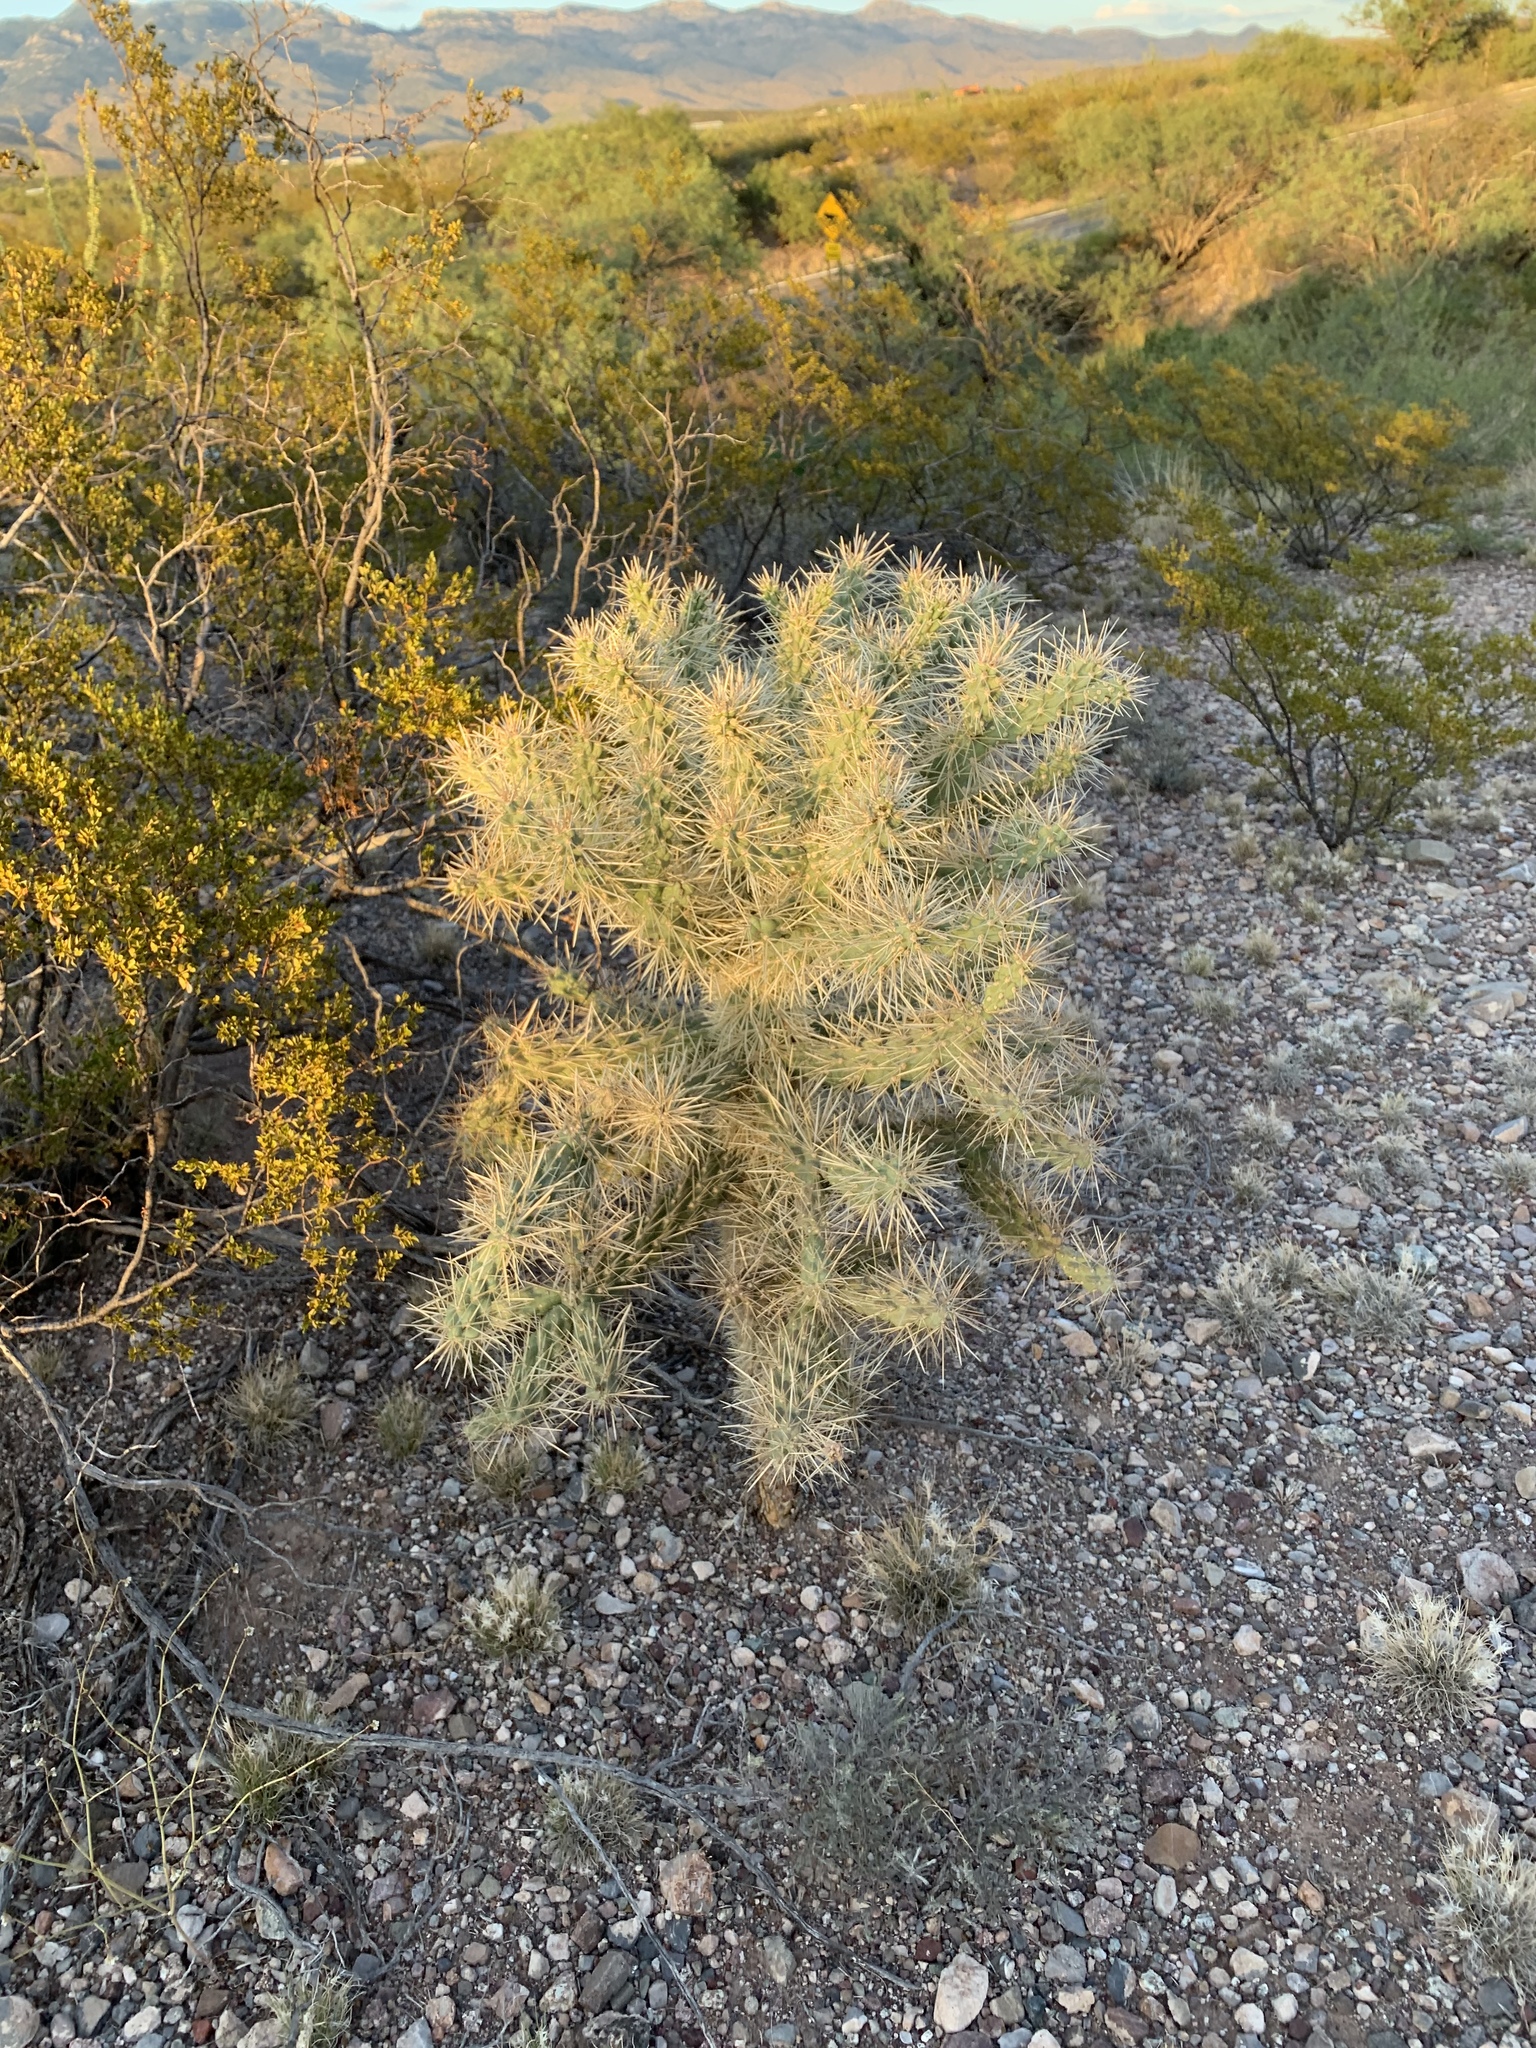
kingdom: Plantae
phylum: Tracheophyta
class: Magnoliopsida
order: Caryophyllales
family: Cactaceae
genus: Cylindropuntia
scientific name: Cylindropuntia fulgida
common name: Jumping cholla
